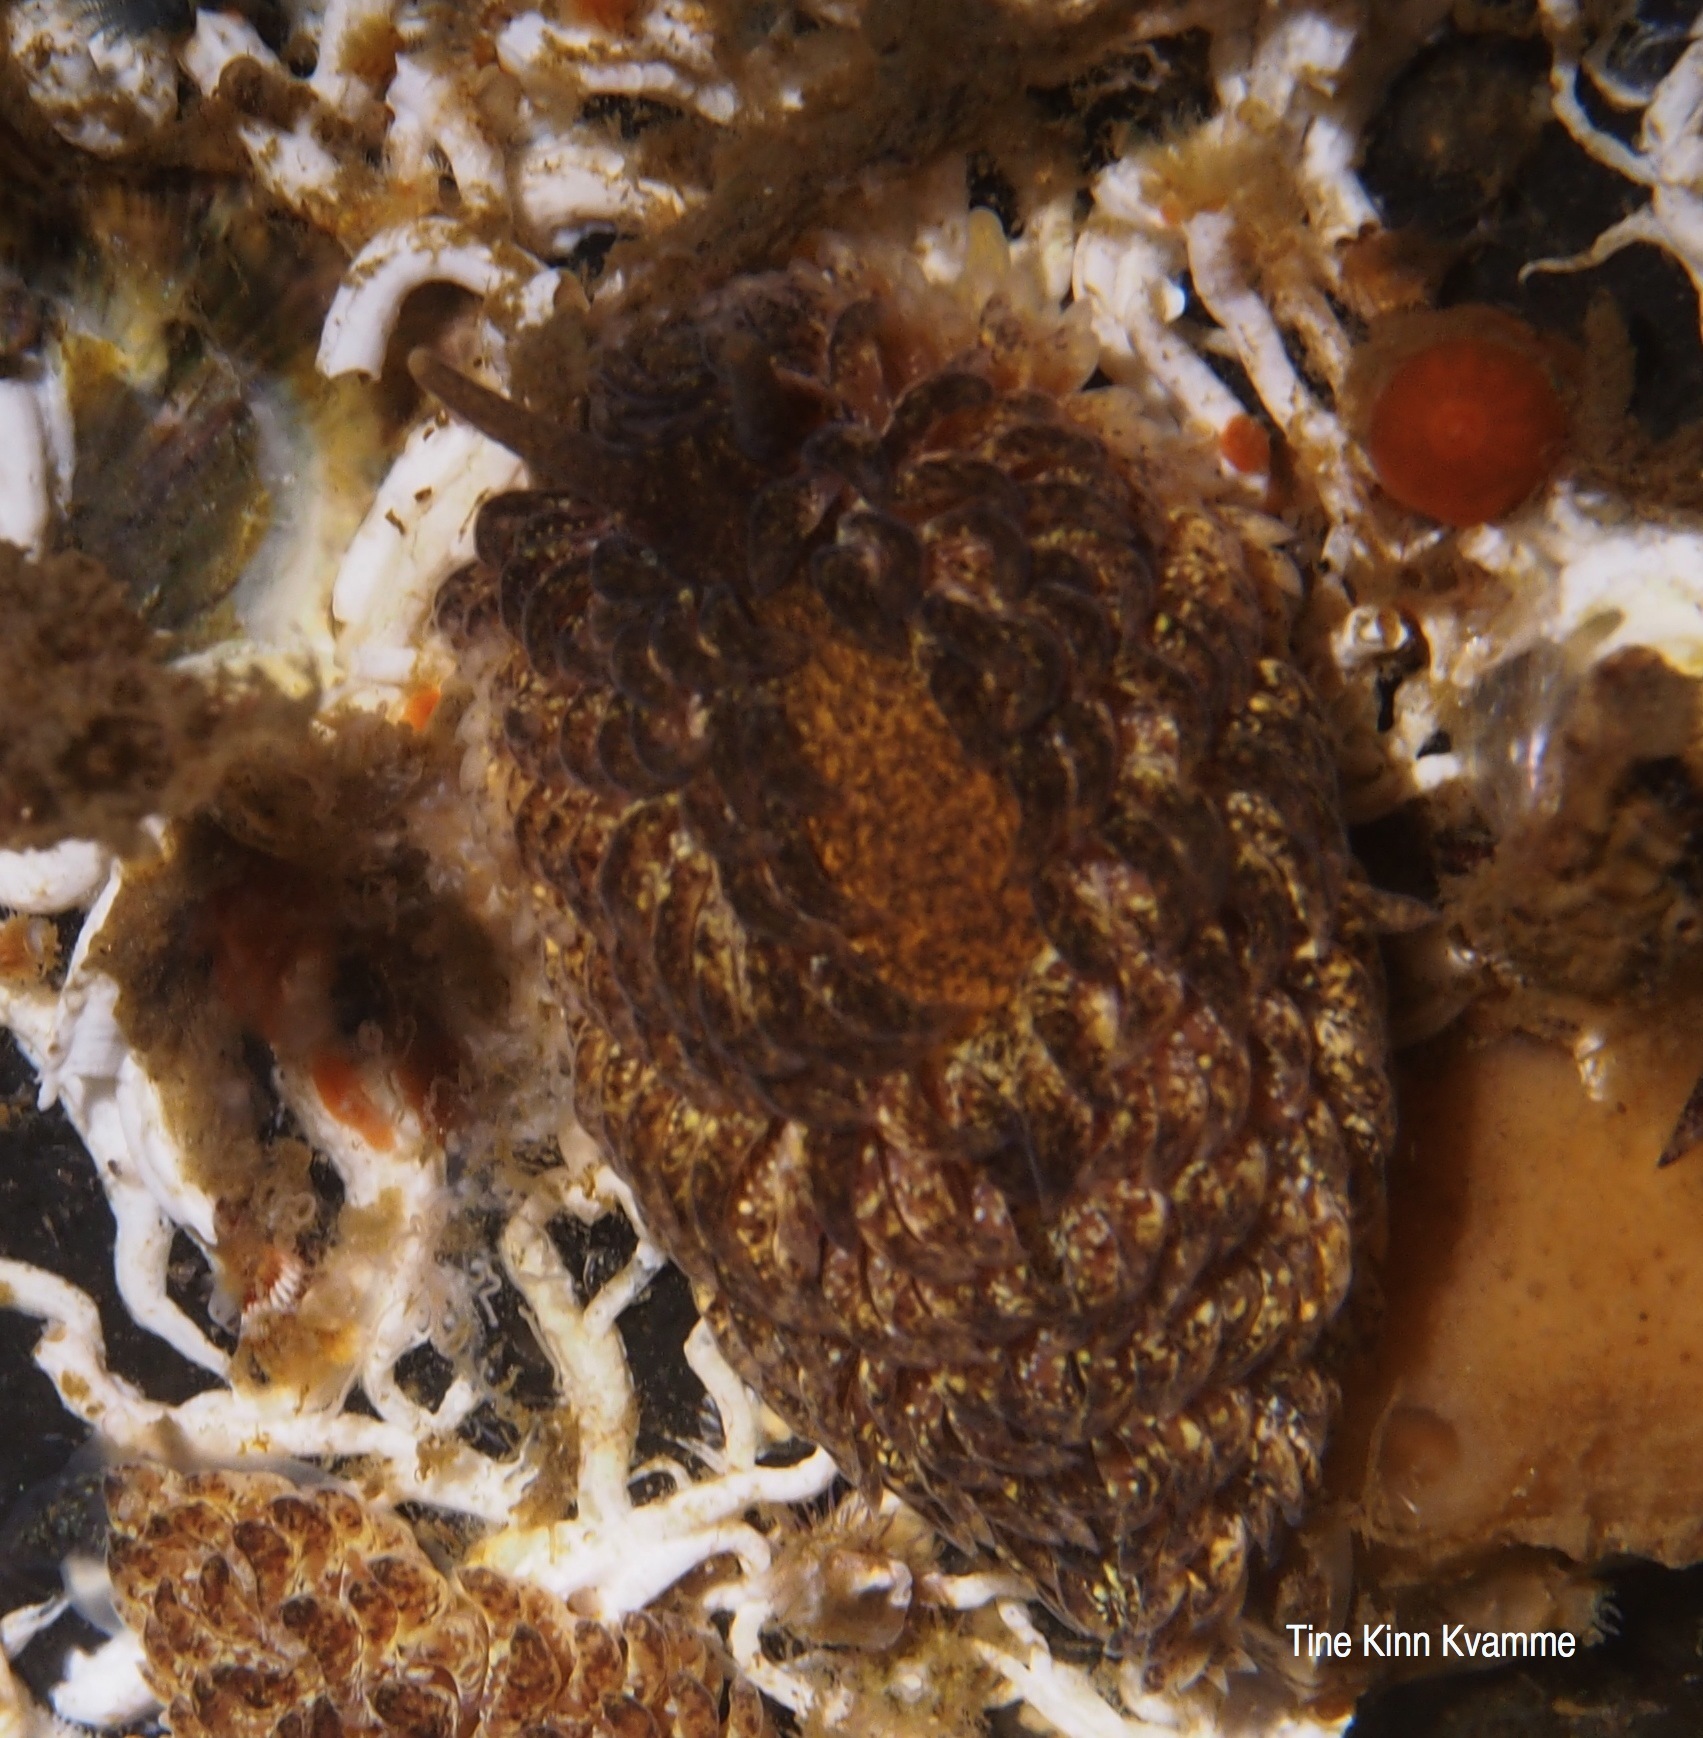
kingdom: Animalia
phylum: Mollusca
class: Gastropoda
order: Nudibranchia
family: Aeolidiidae
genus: Aeolidia
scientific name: Aeolidia papillosa
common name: Common grey sea slug
